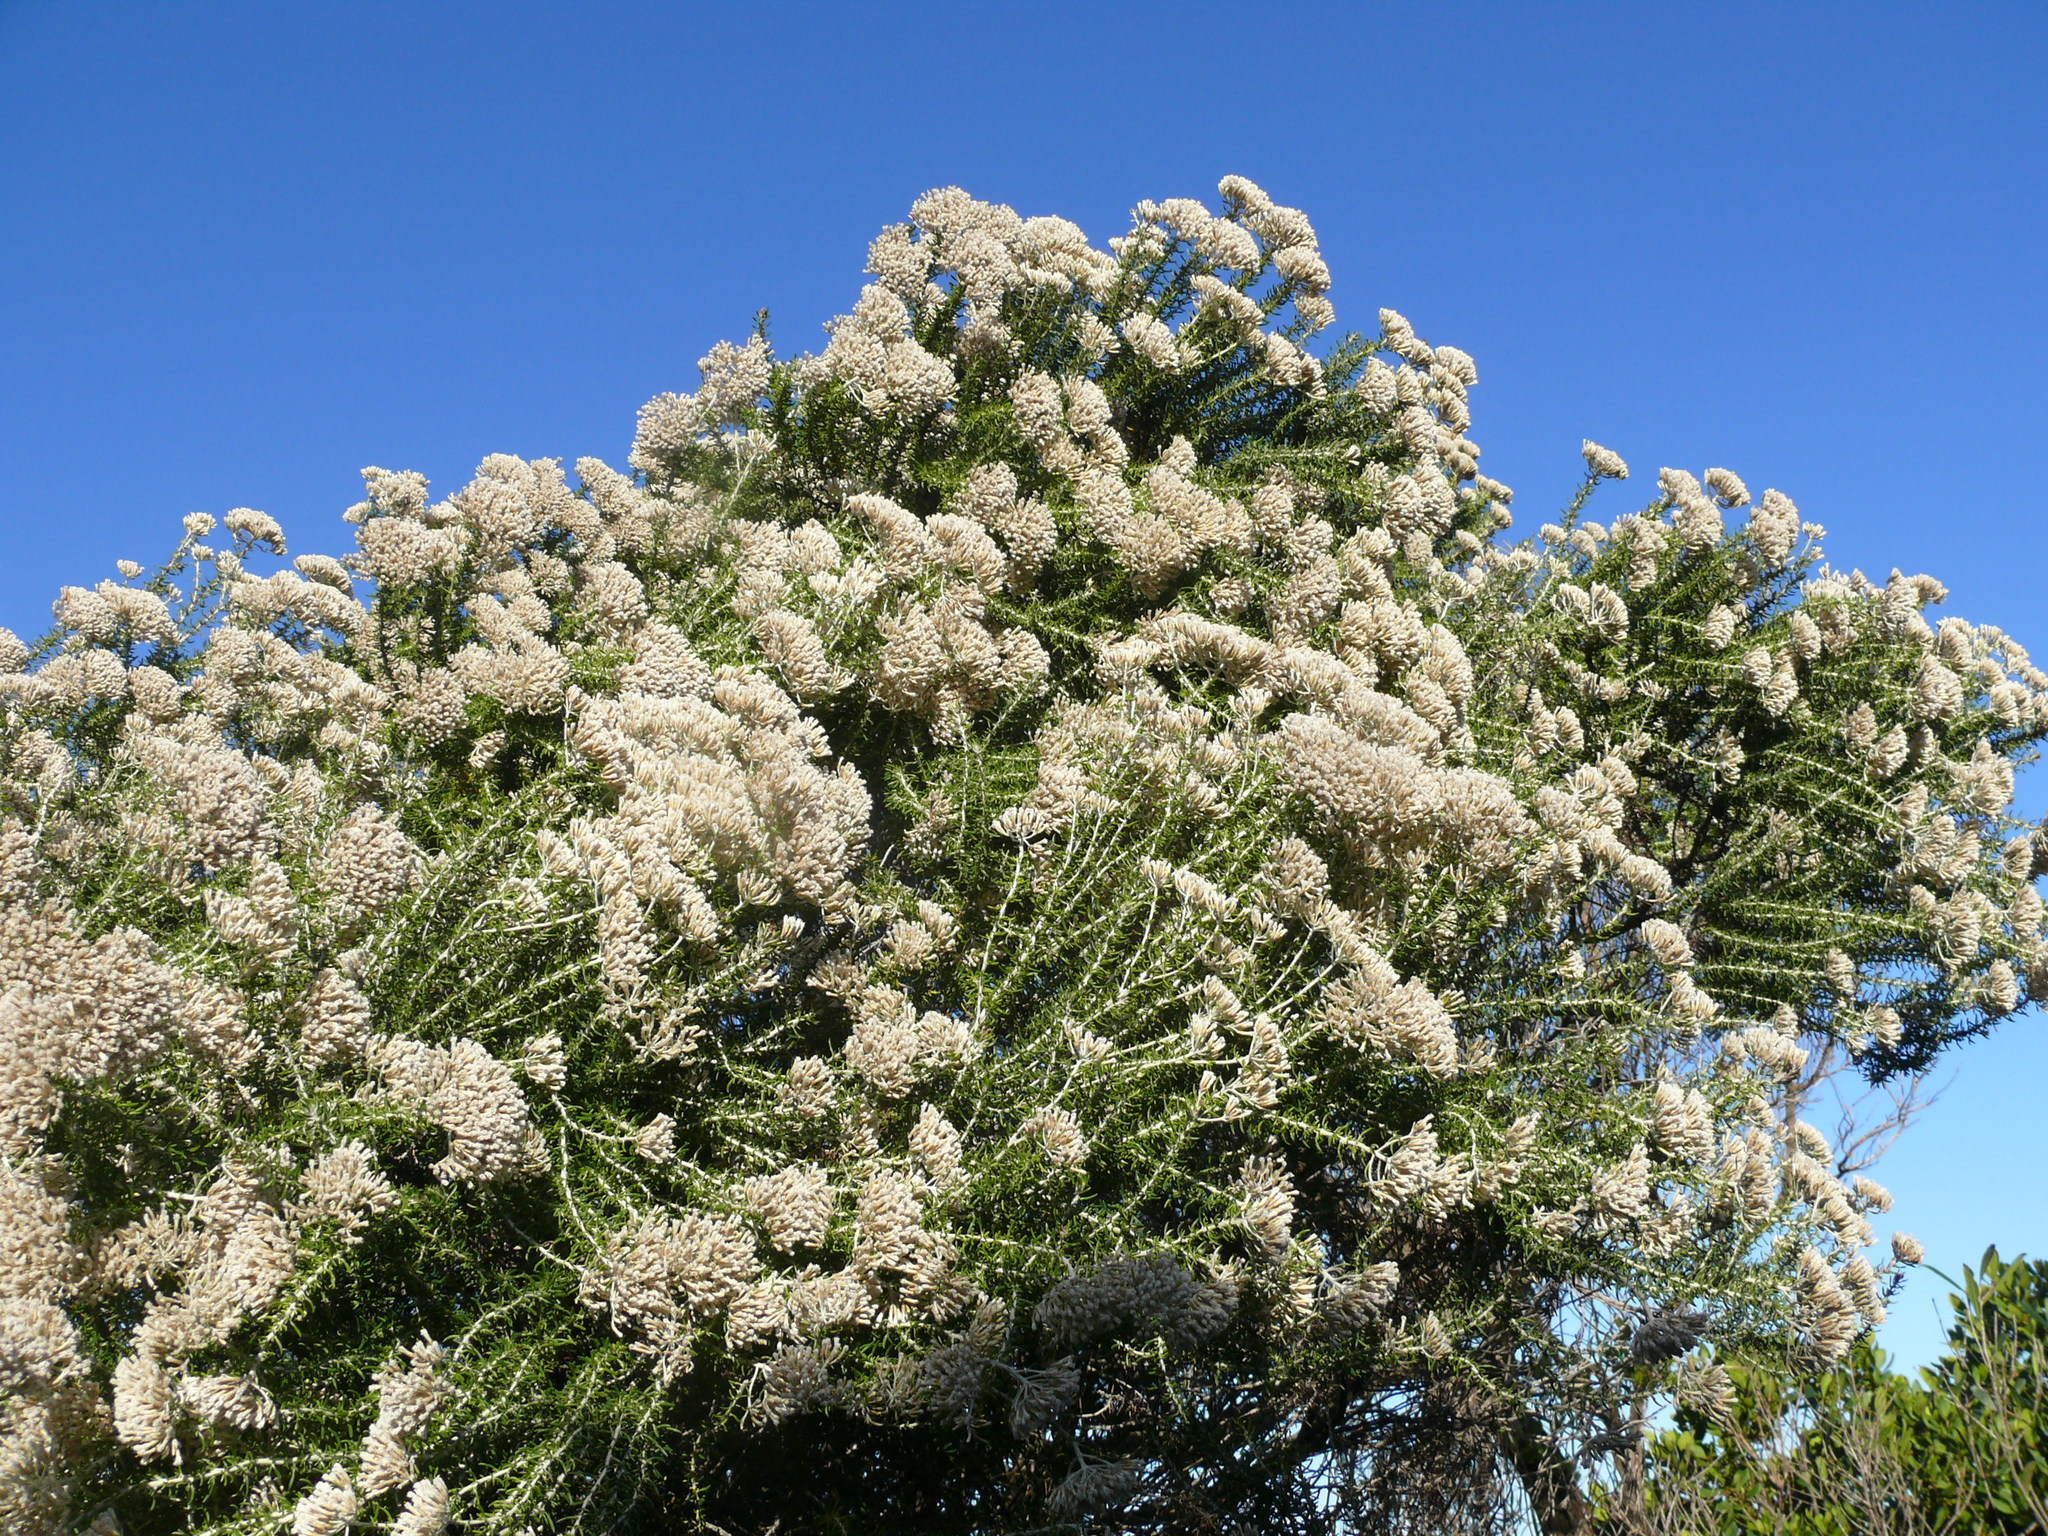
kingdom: Plantae
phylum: Tracheophyta
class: Magnoliopsida
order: Asterales
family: Asteraceae
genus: Metalasia
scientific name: Metalasia muricata
